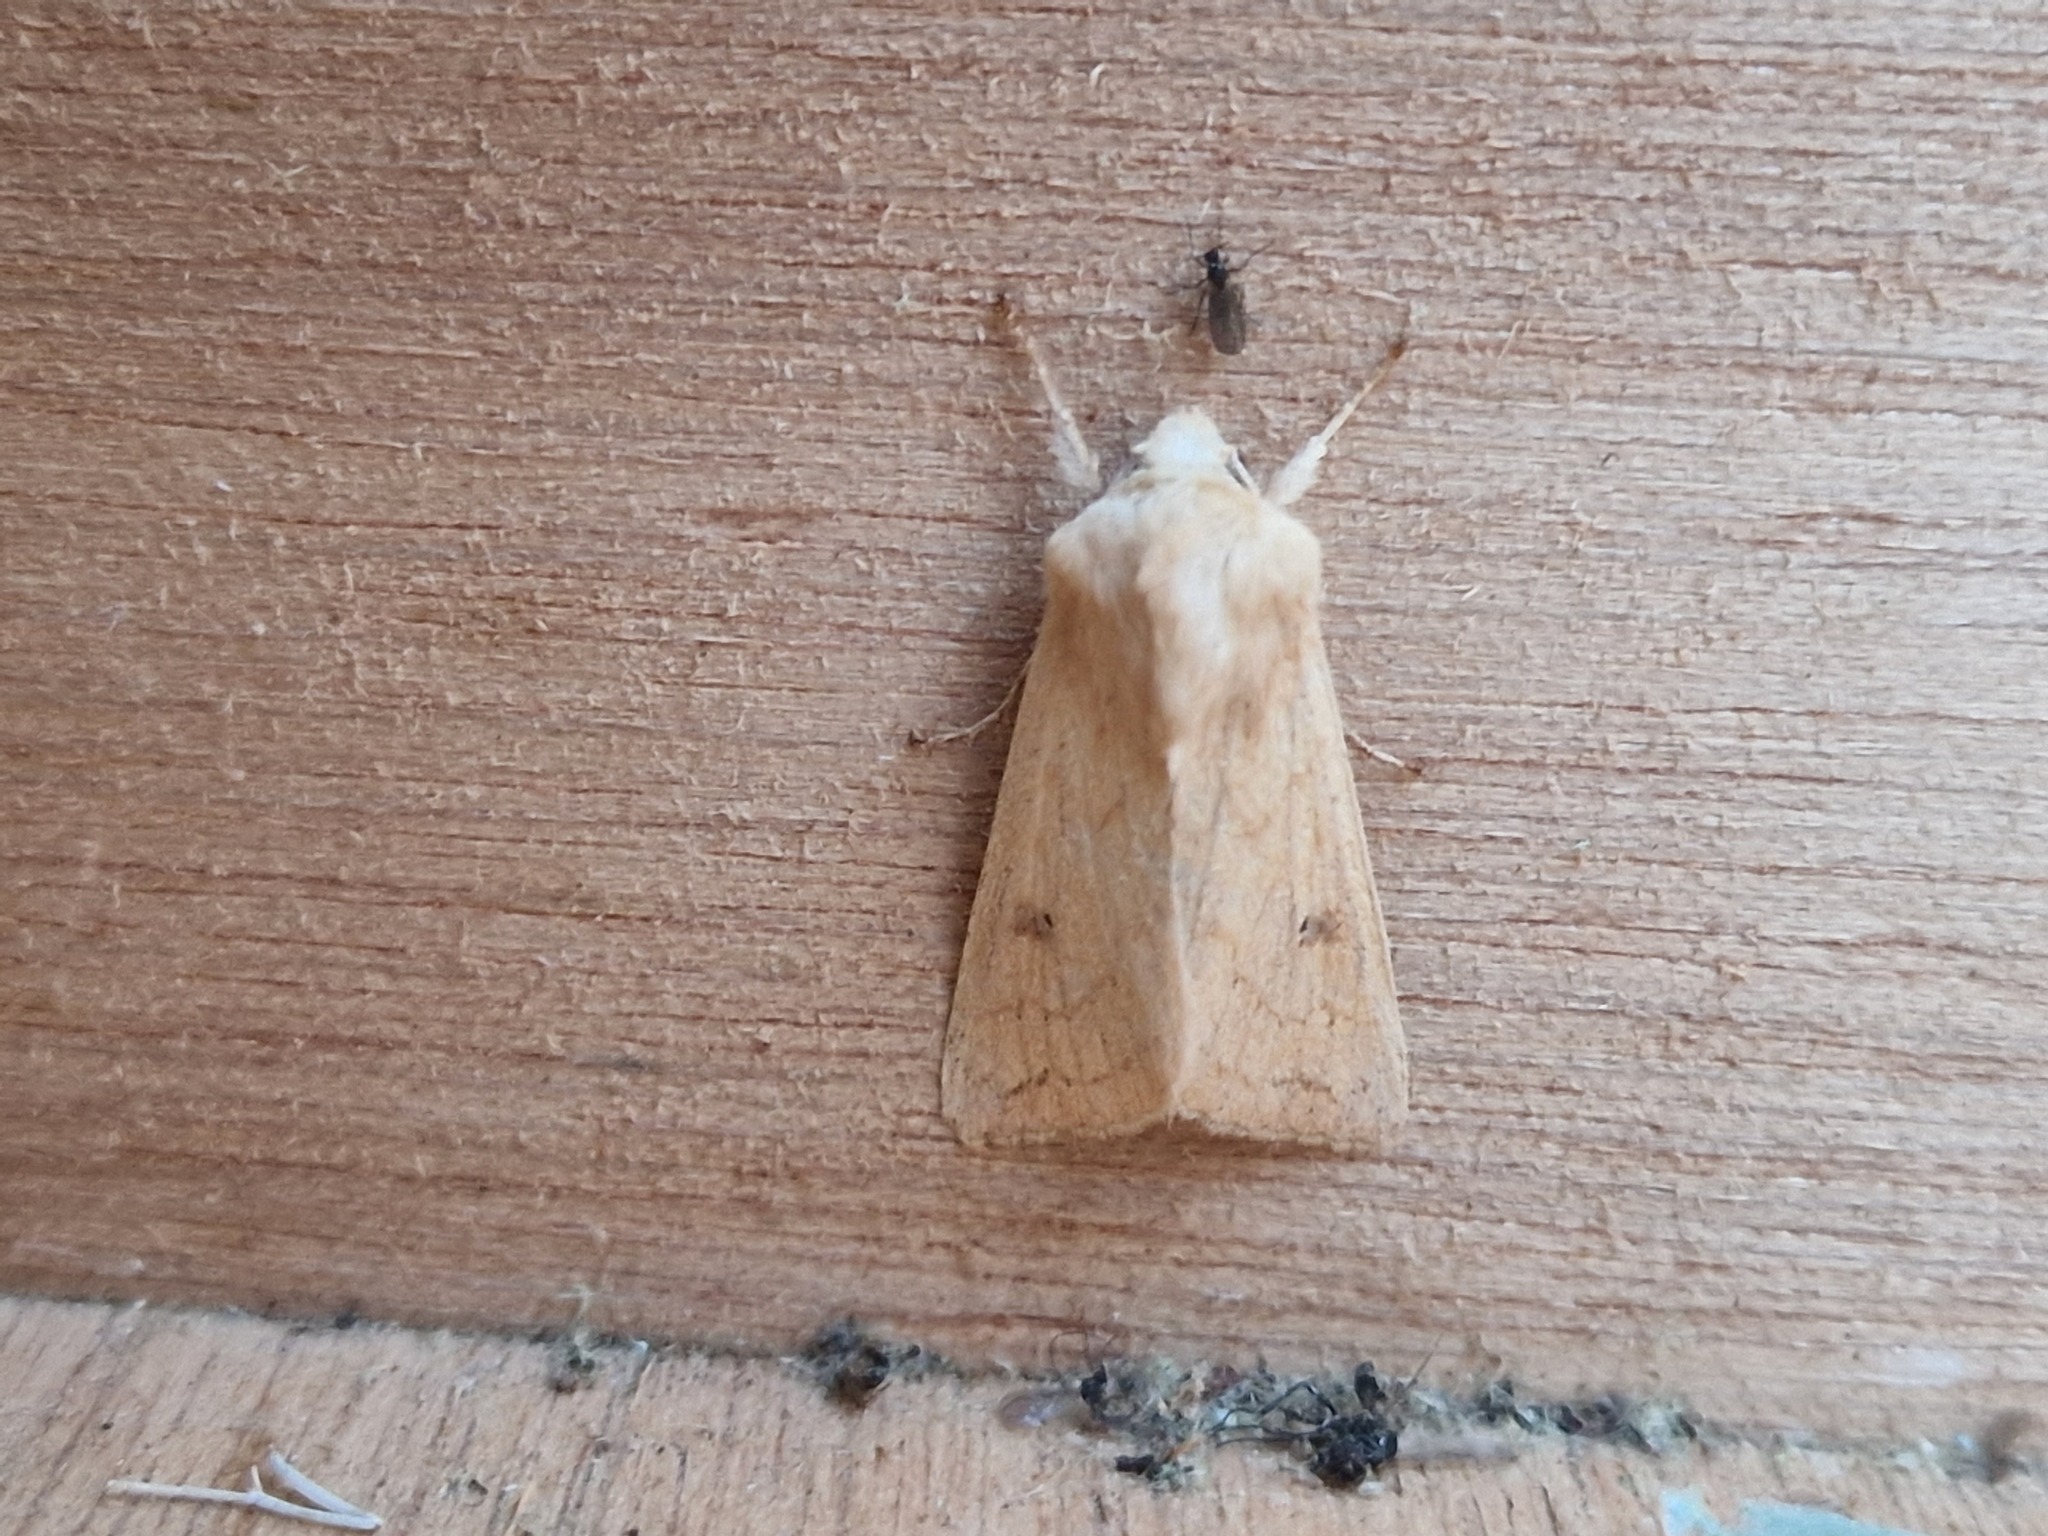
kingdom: Animalia
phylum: Arthropoda
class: Insecta
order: Lepidoptera
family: Noctuidae
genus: Mythimna
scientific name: Mythimna vitellina
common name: Delicate
